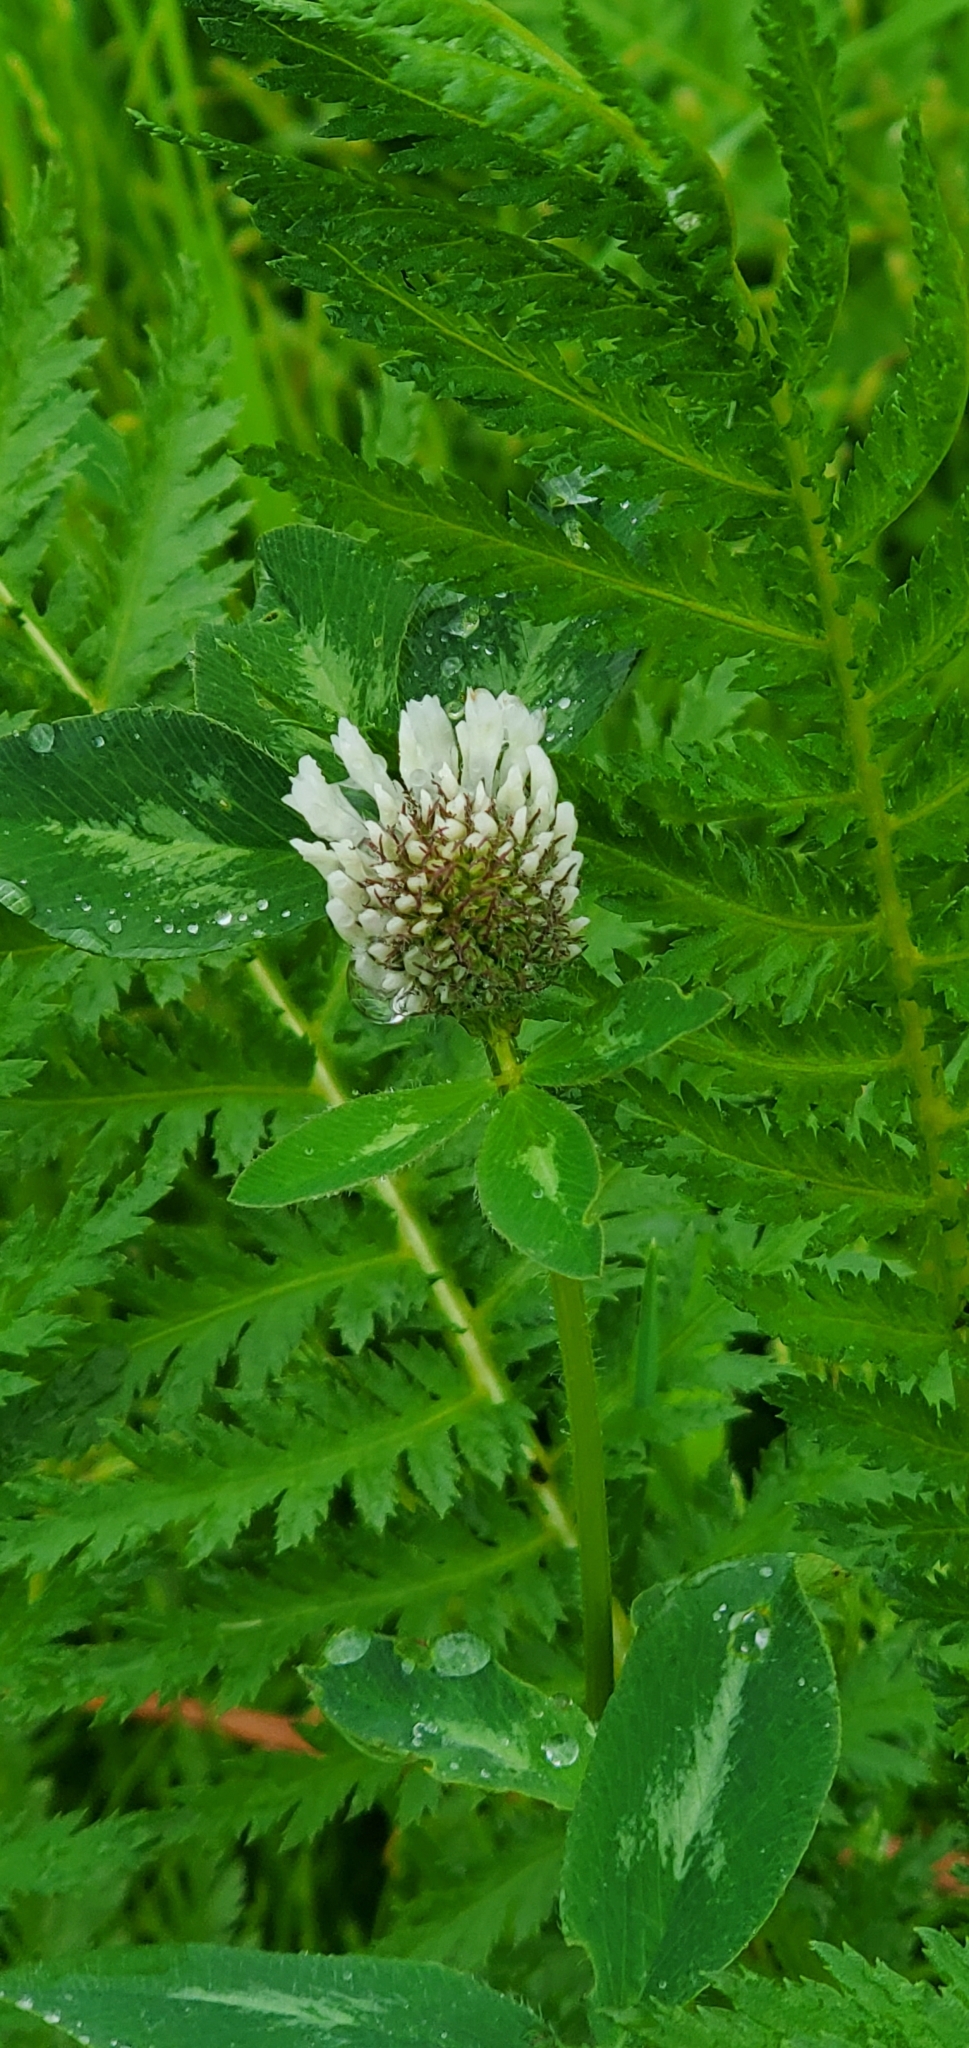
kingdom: Plantae
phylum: Tracheophyta
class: Magnoliopsida
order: Fabales
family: Fabaceae
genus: Trifolium
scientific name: Trifolium pratense
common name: Red clover
